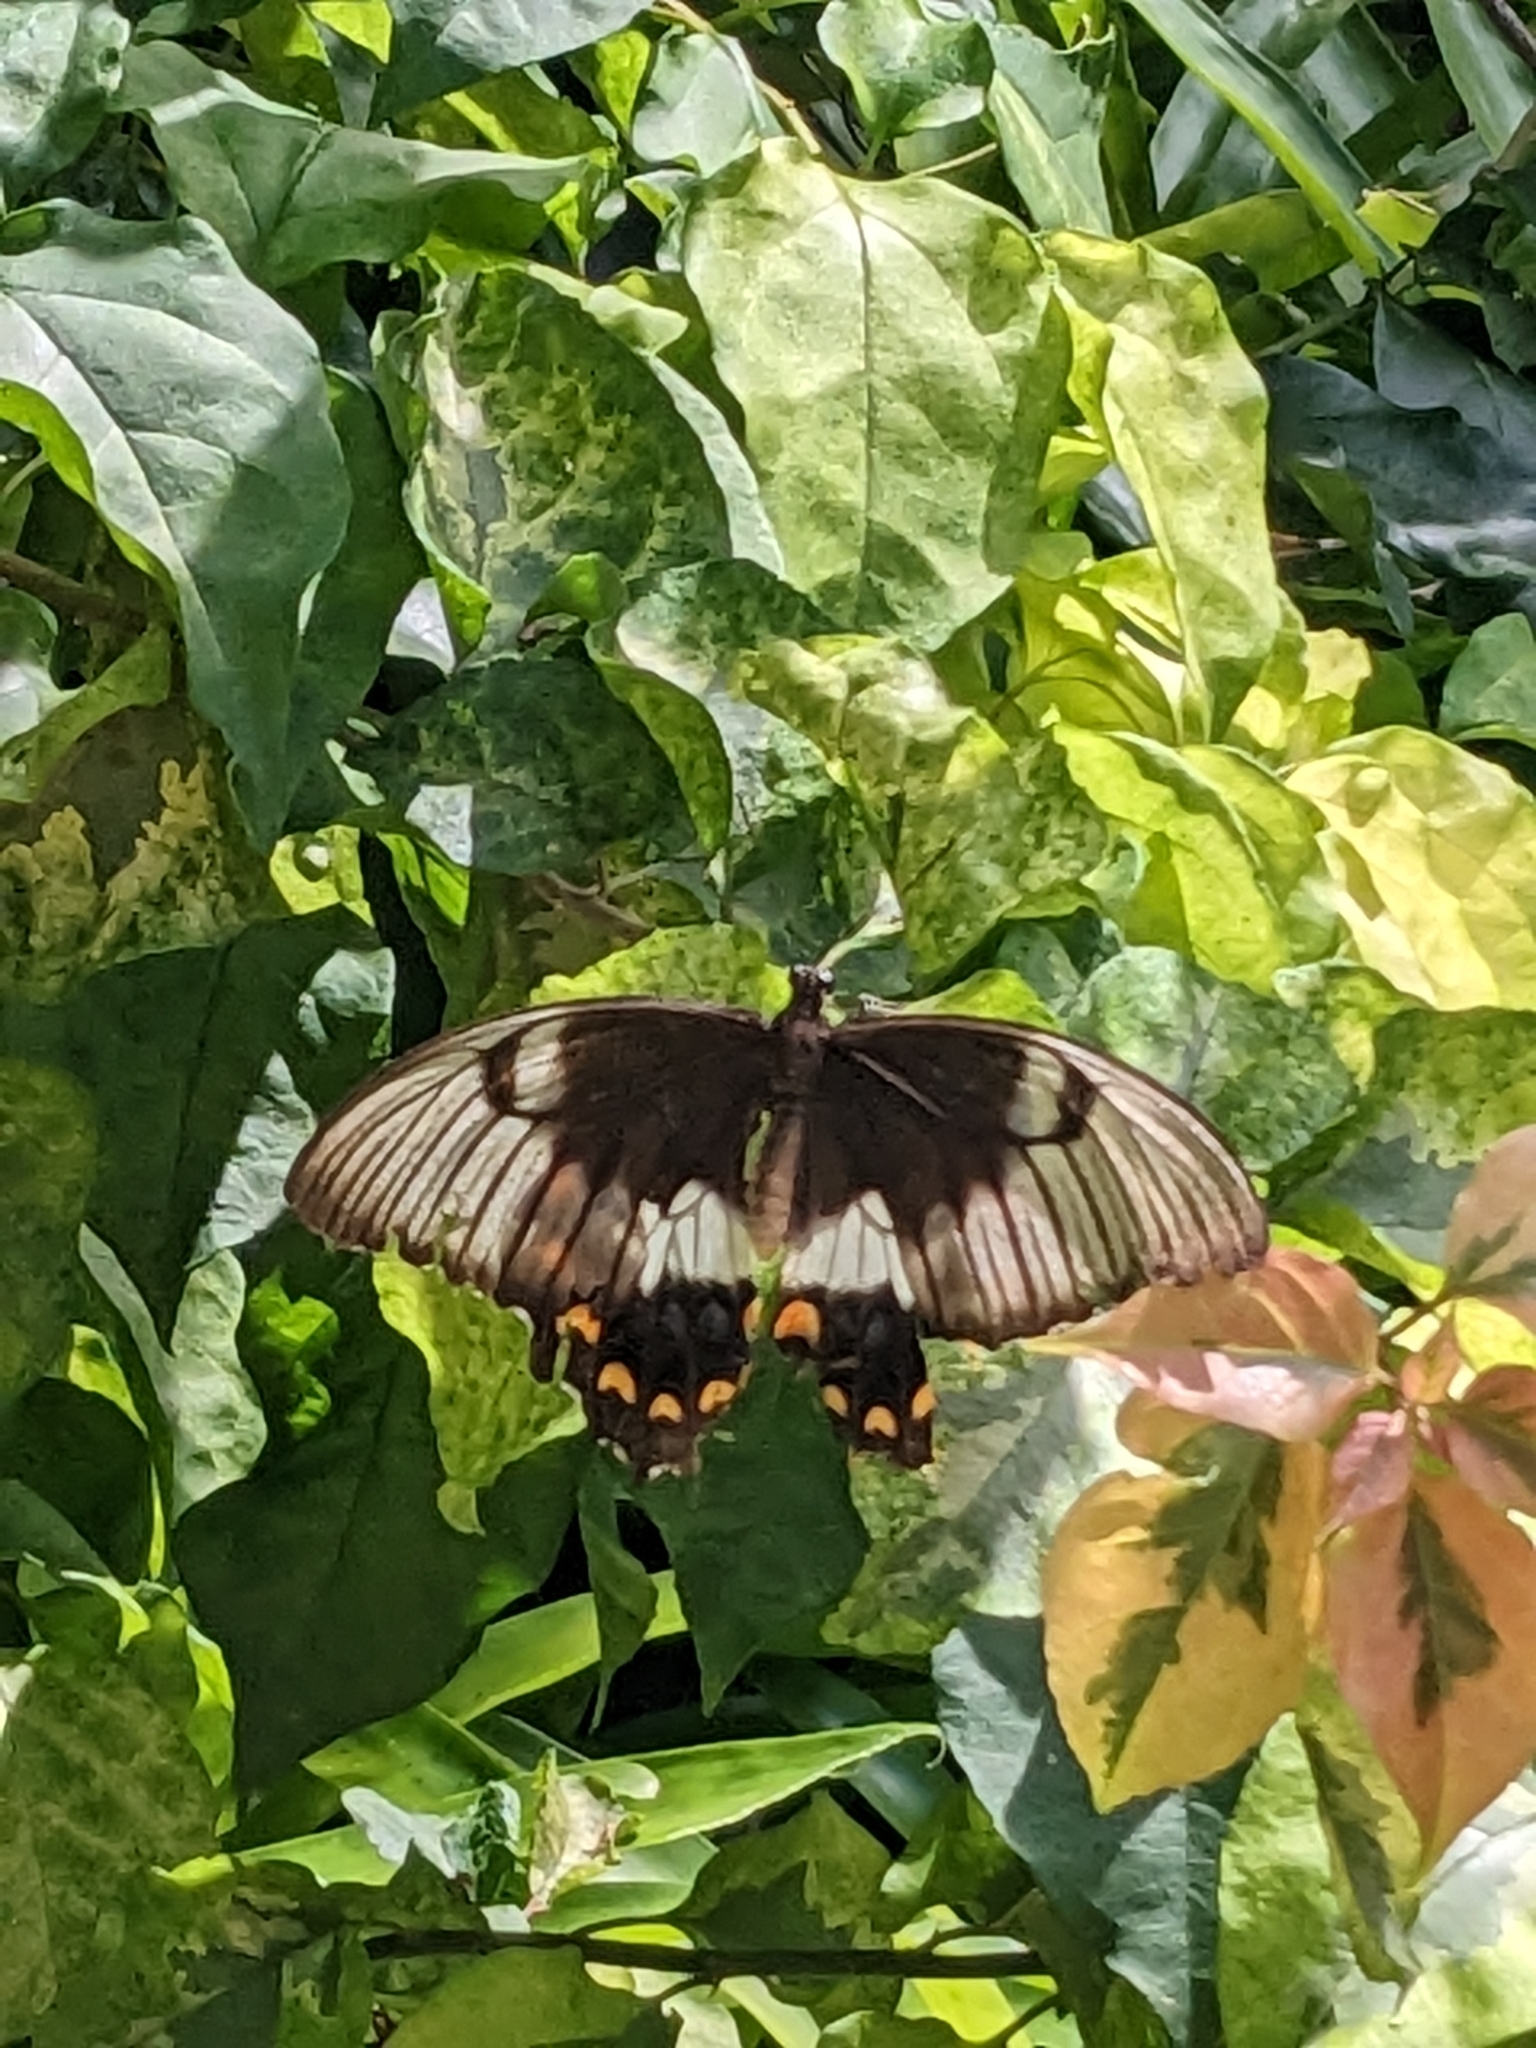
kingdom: Animalia
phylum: Arthropoda
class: Insecta
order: Lepidoptera
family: Papilionidae
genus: Papilio
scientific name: Papilio aegeus
